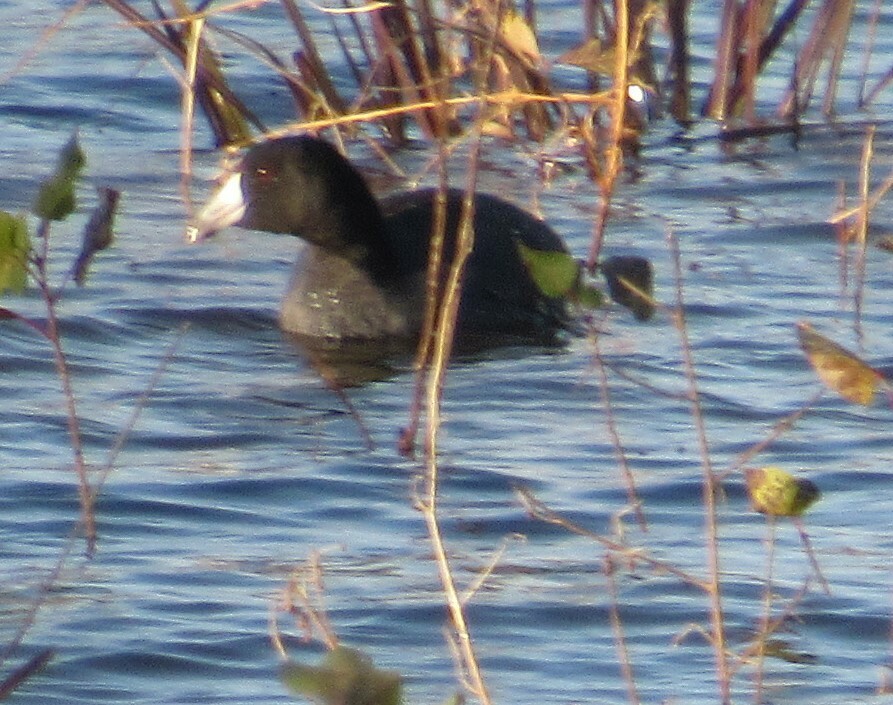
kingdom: Animalia
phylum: Chordata
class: Aves
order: Gruiformes
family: Rallidae
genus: Fulica
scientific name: Fulica americana
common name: American coot
